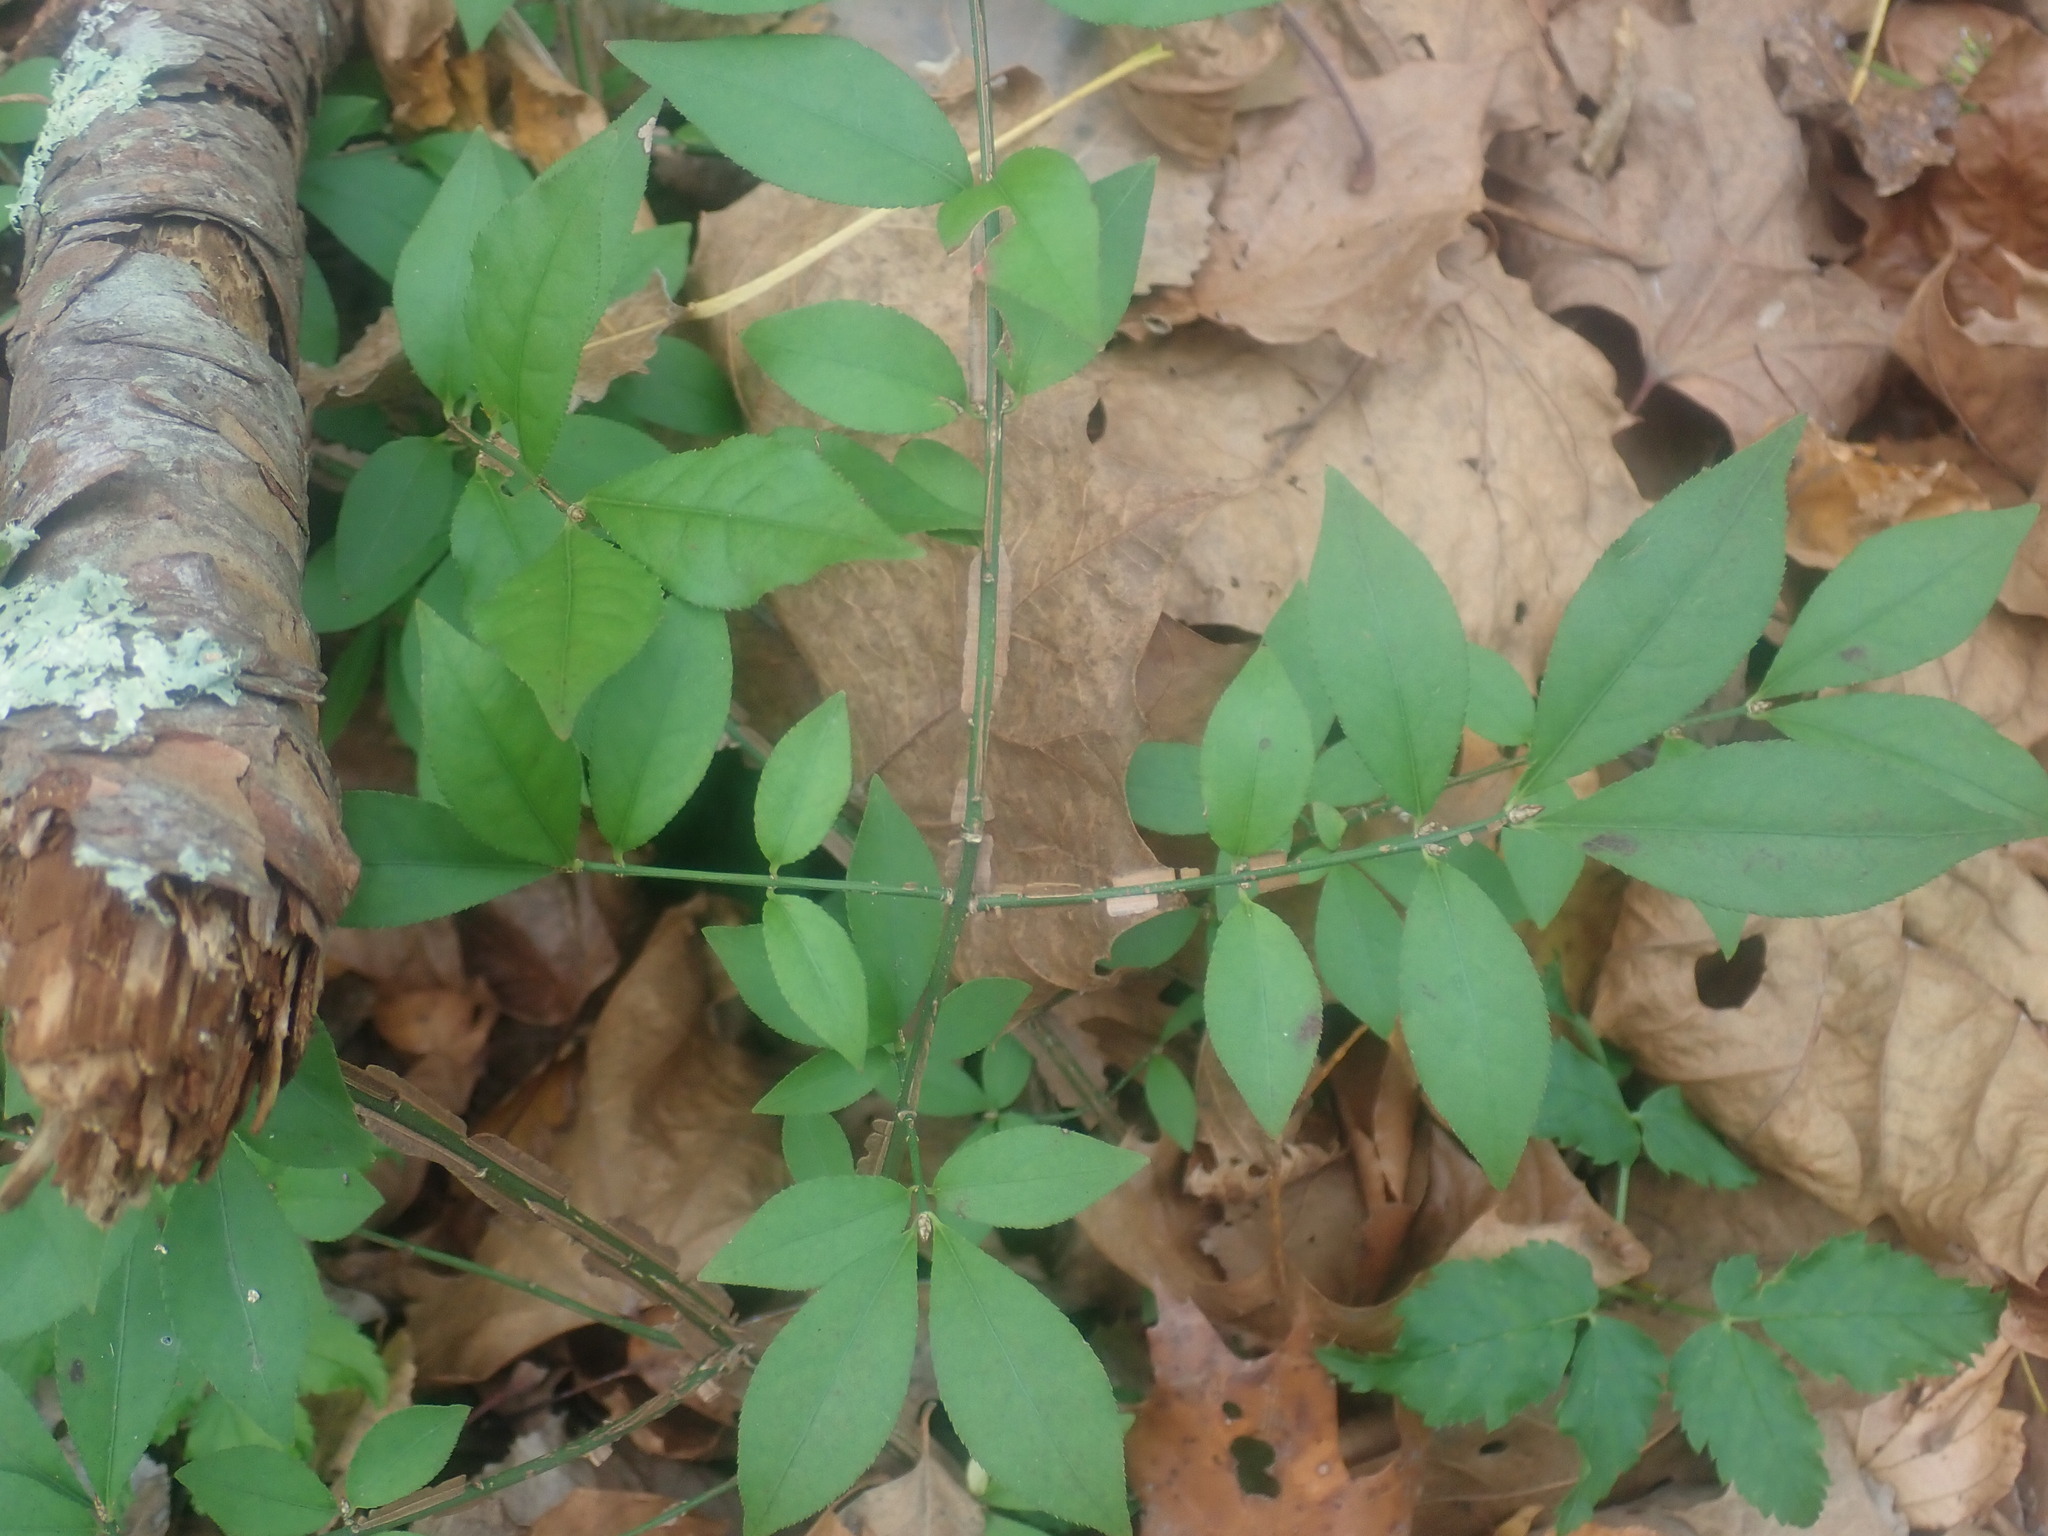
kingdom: Plantae
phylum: Tracheophyta
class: Magnoliopsida
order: Celastrales
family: Celastraceae
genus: Euonymus
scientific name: Euonymus alatus
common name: Winged euonymus
